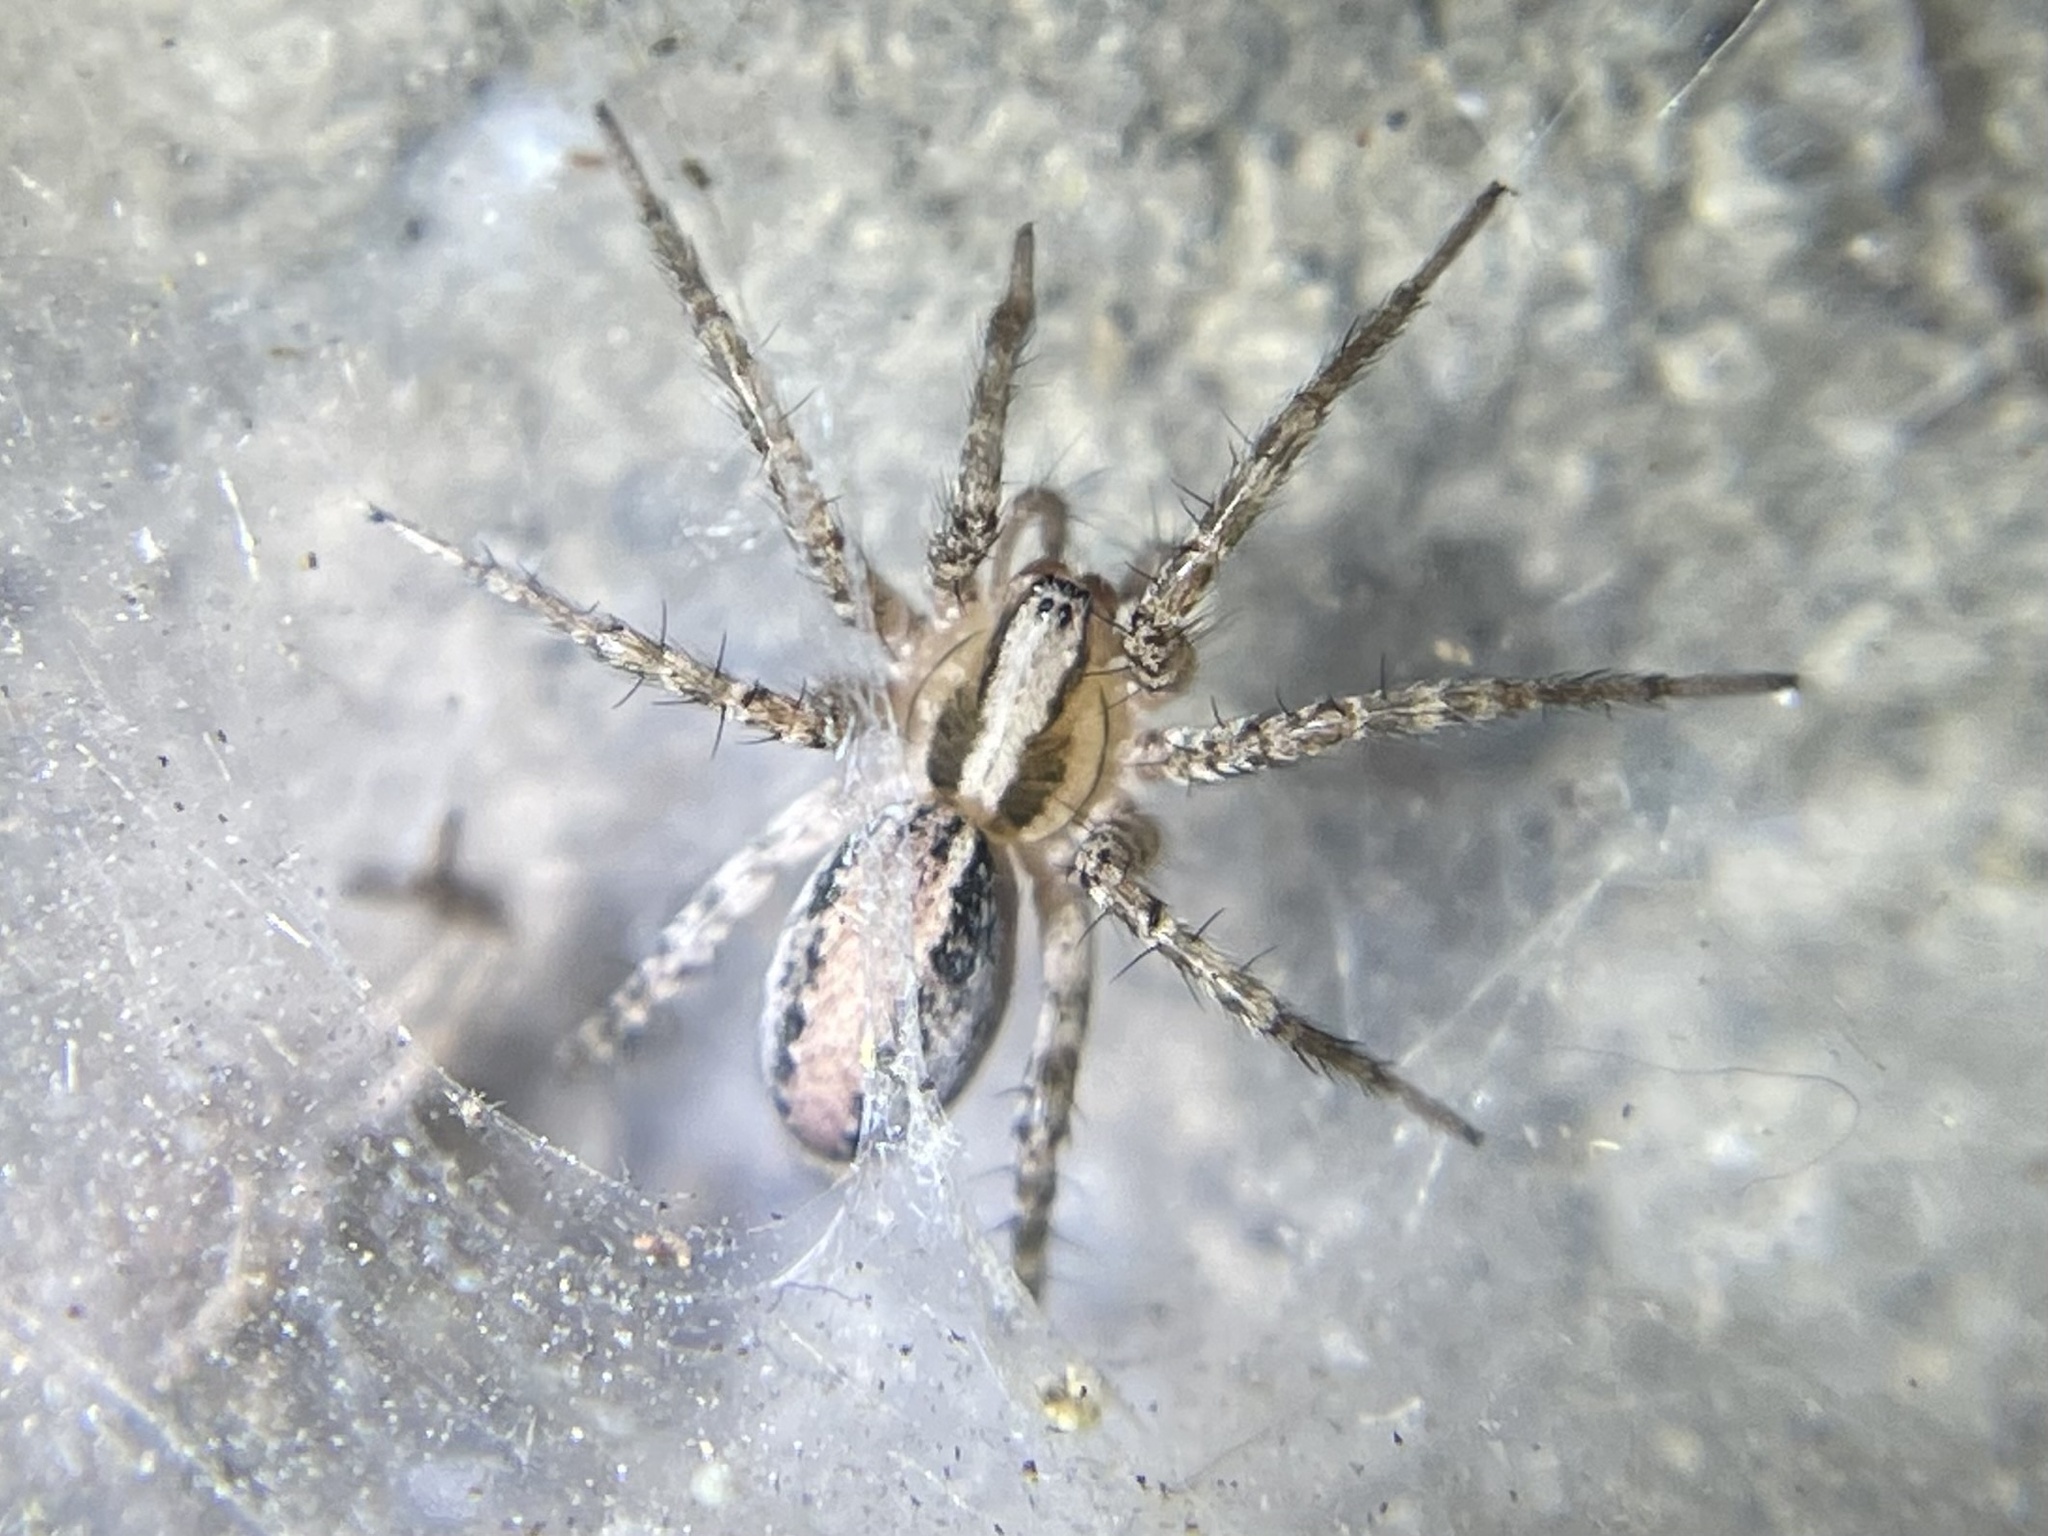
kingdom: Animalia
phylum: Arthropoda
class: Arachnida
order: Araneae
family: Agelenidae
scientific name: Agelenidae
